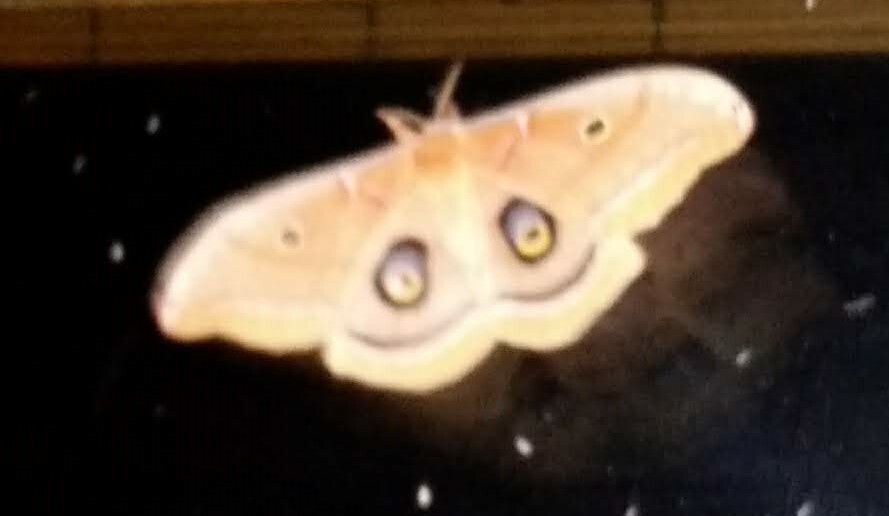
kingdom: Animalia
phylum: Arthropoda
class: Insecta
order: Lepidoptera
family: Saturniidae
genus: Antheraea
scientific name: Antheraea polyphemus
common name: Polyphemus moth
